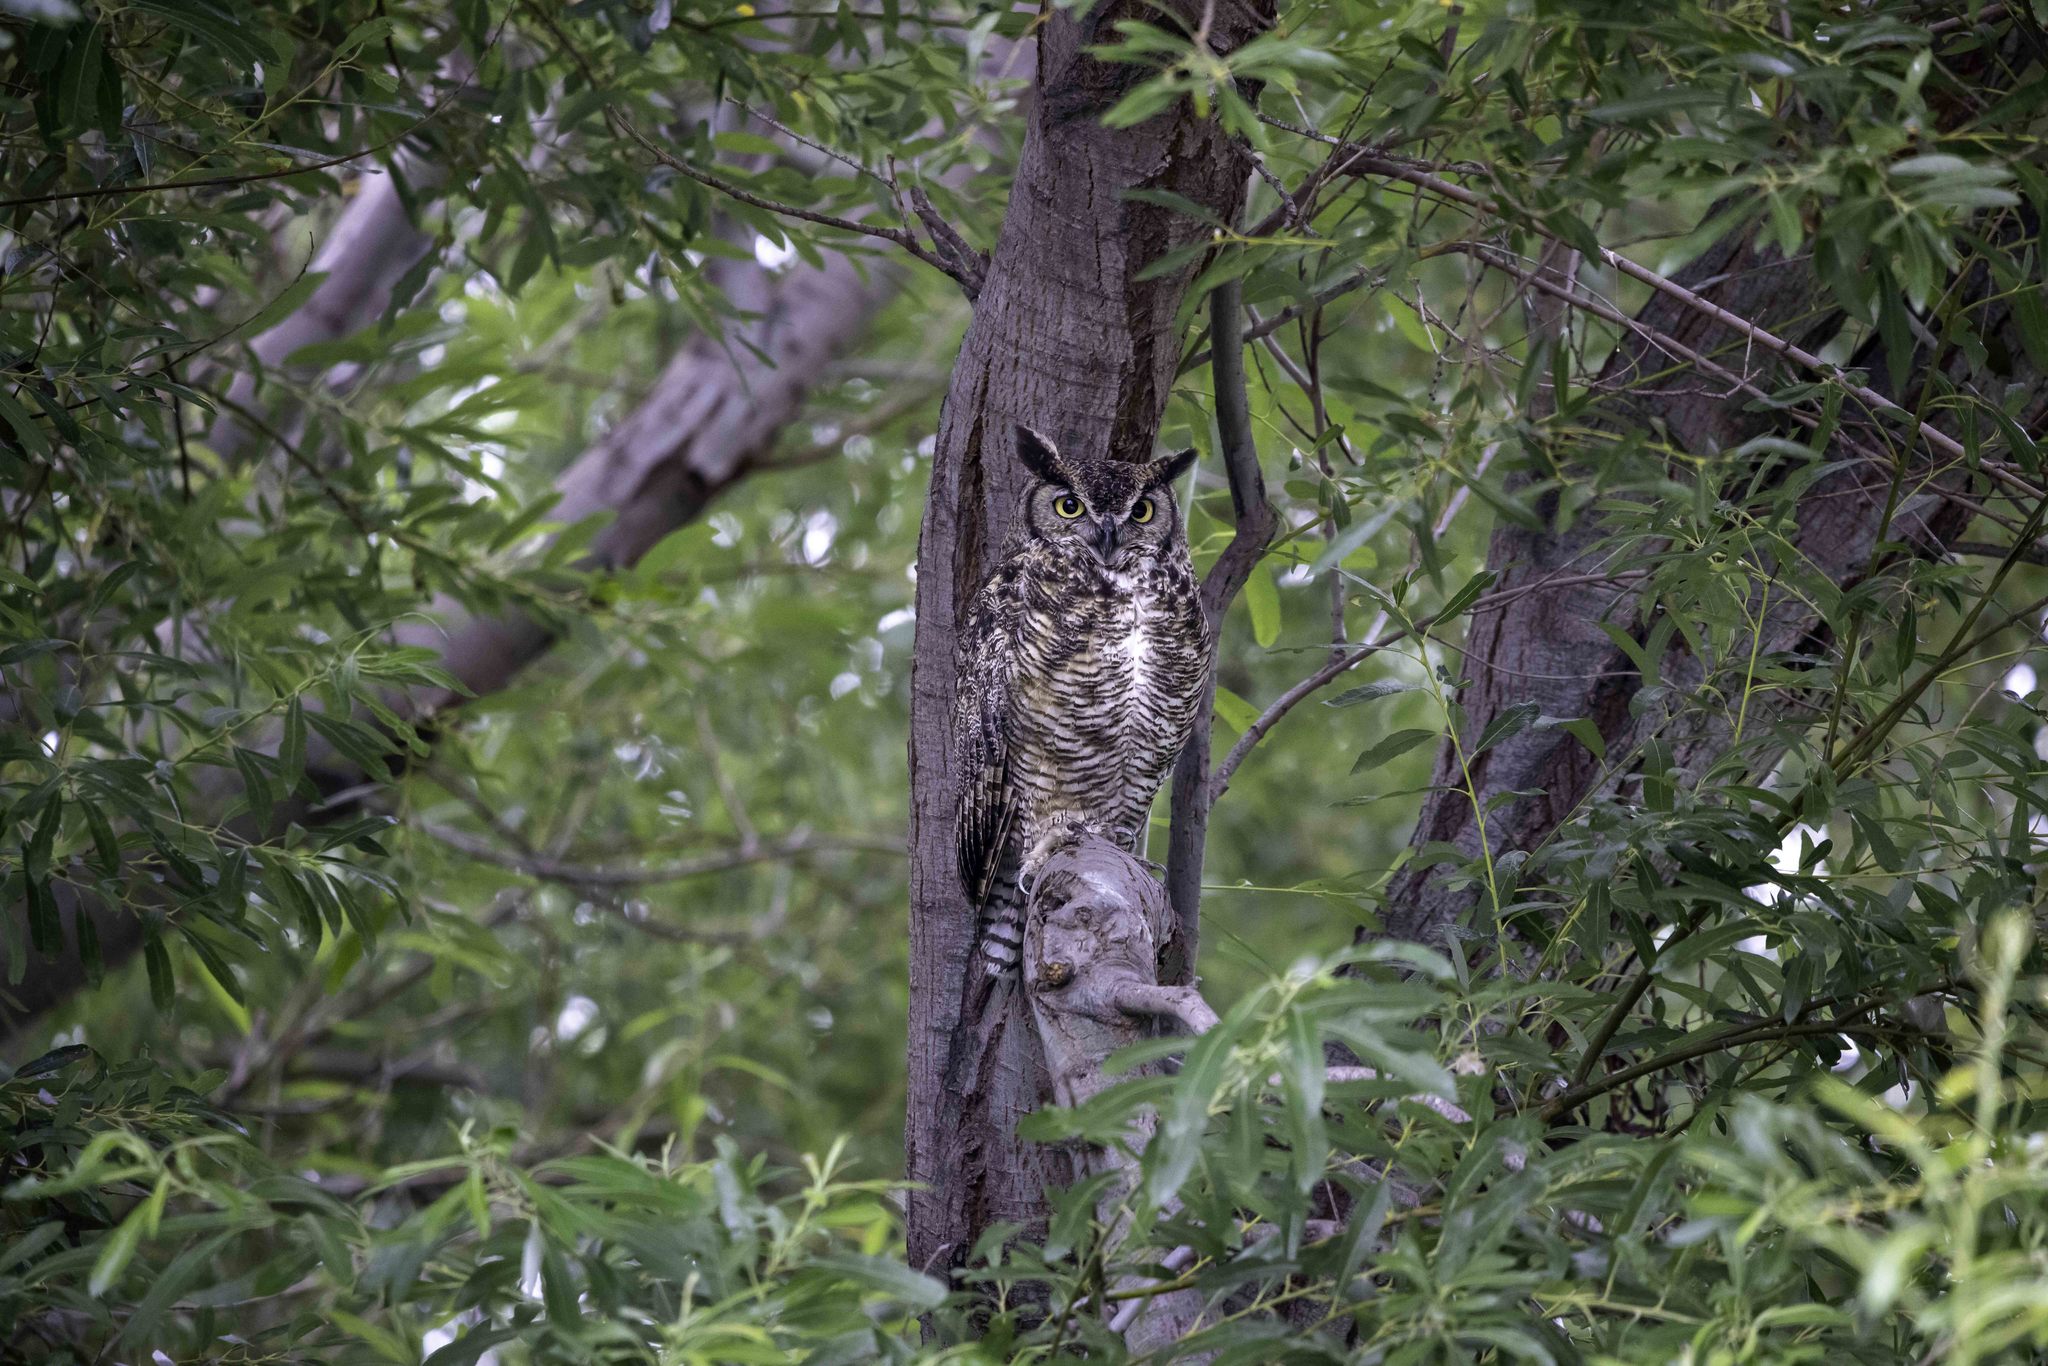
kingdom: Animalia
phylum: Chordata
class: Aves
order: Strigiformes
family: Strigidae
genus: Bubo
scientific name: Bubo virginianus
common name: Great horned owl
